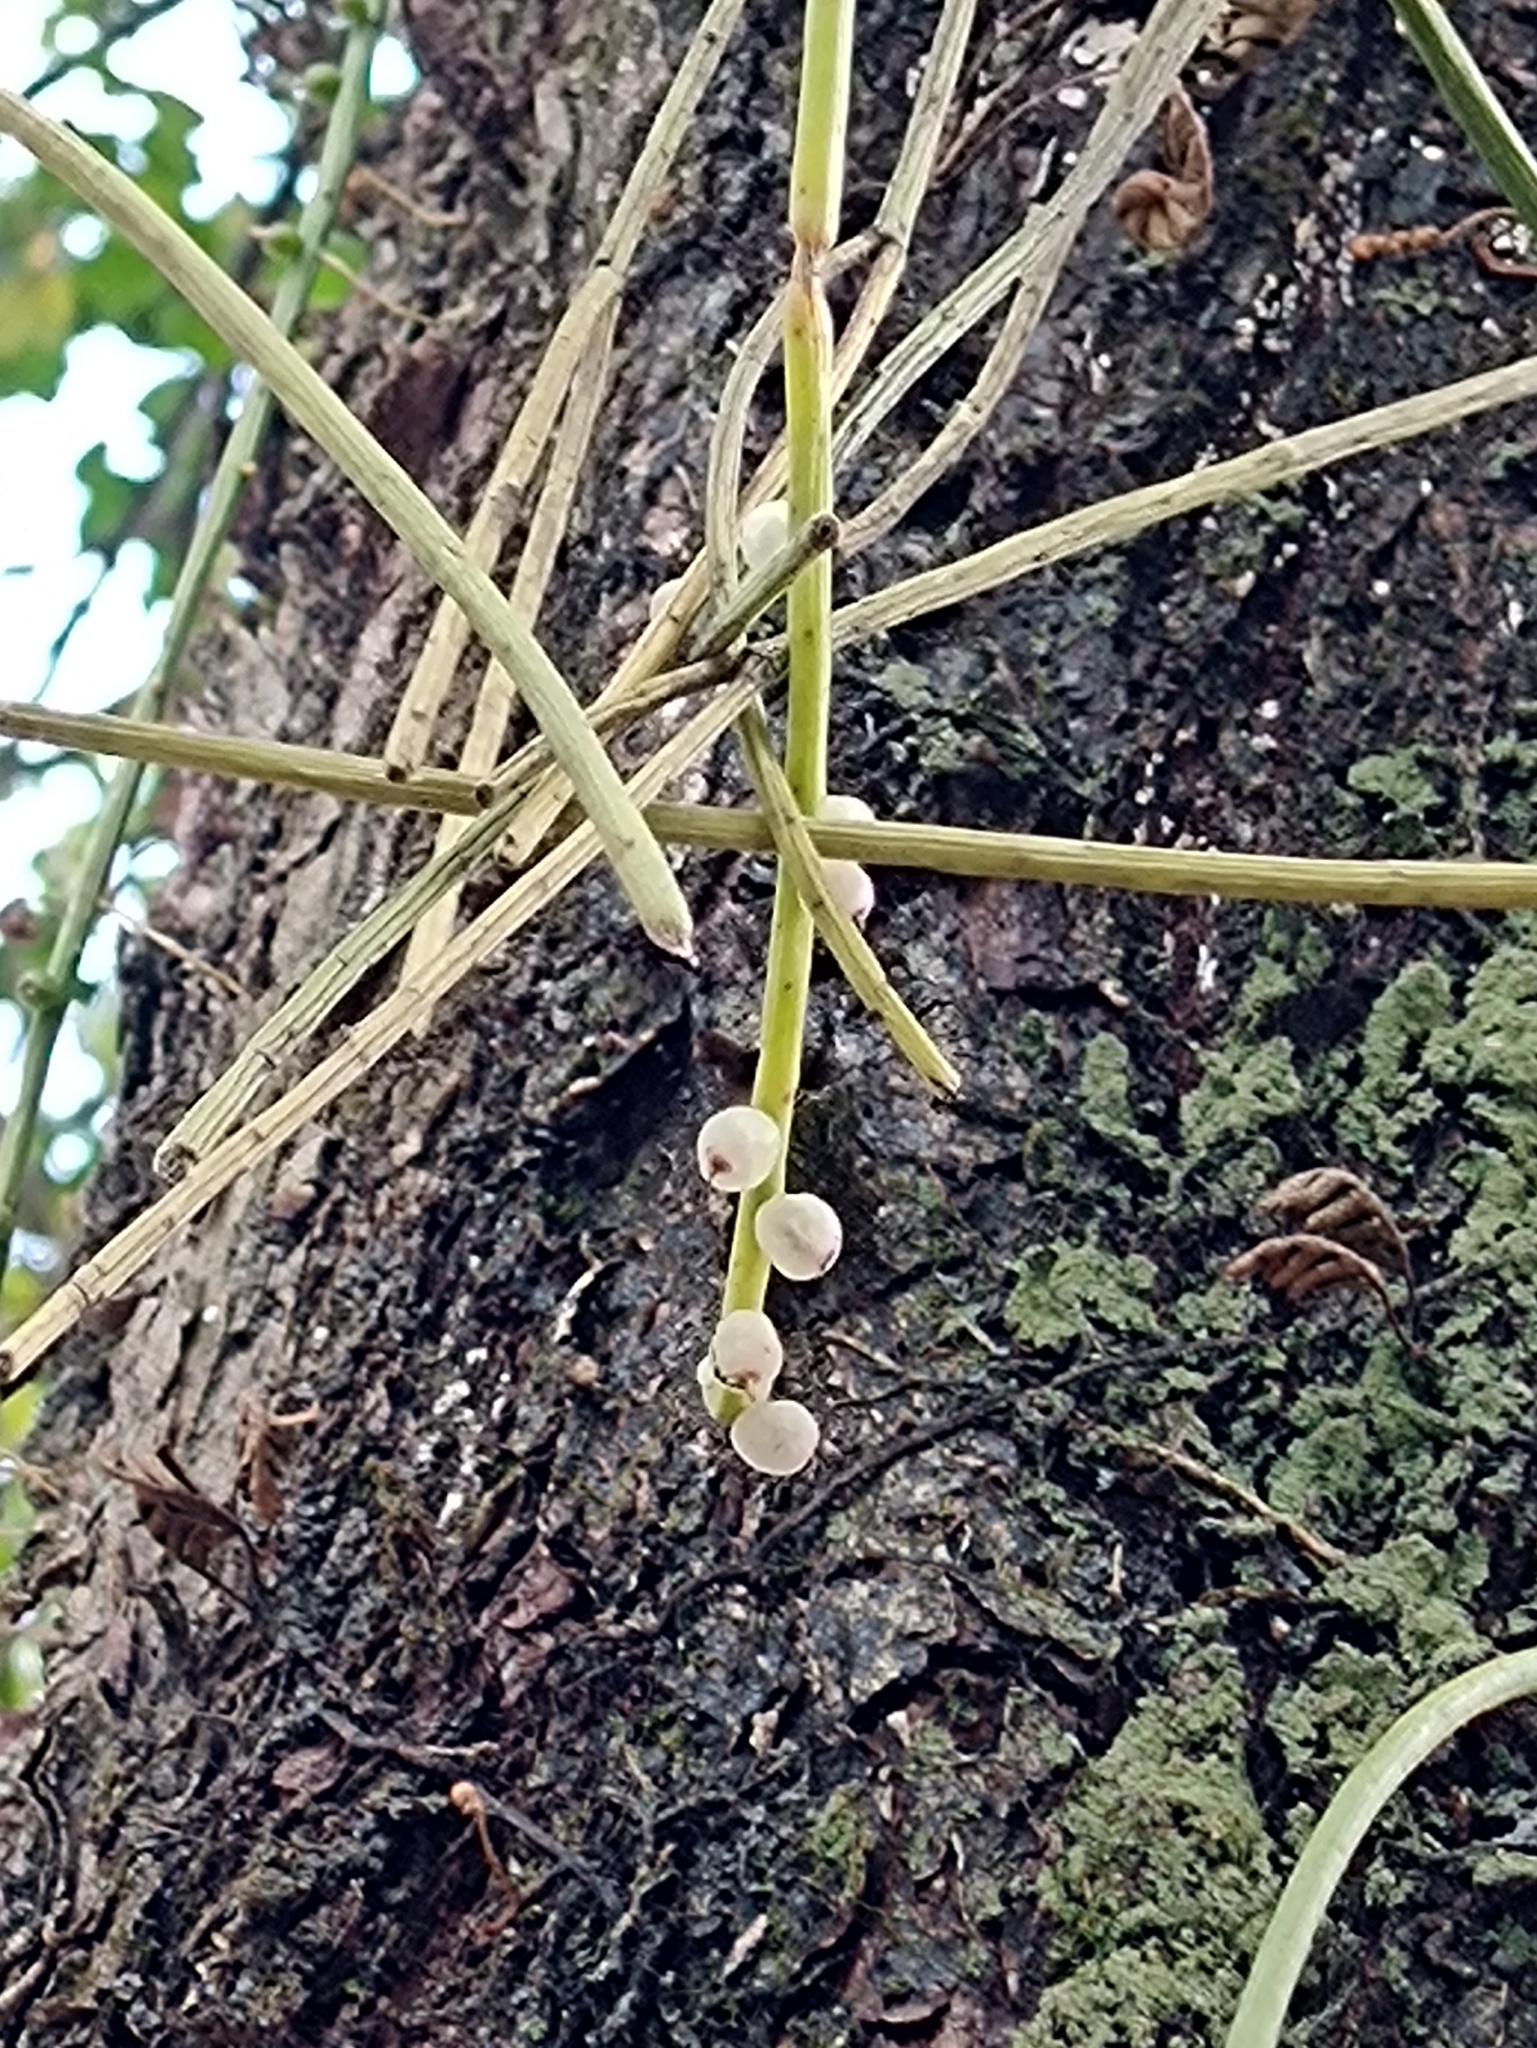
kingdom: Plantae
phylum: Tracheophyta
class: Magnoliopsida
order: Caryophyllales
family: Cactaceae
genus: Rhipsalis
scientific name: Rhipsalis baccifera
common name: Mistletoe cactus
